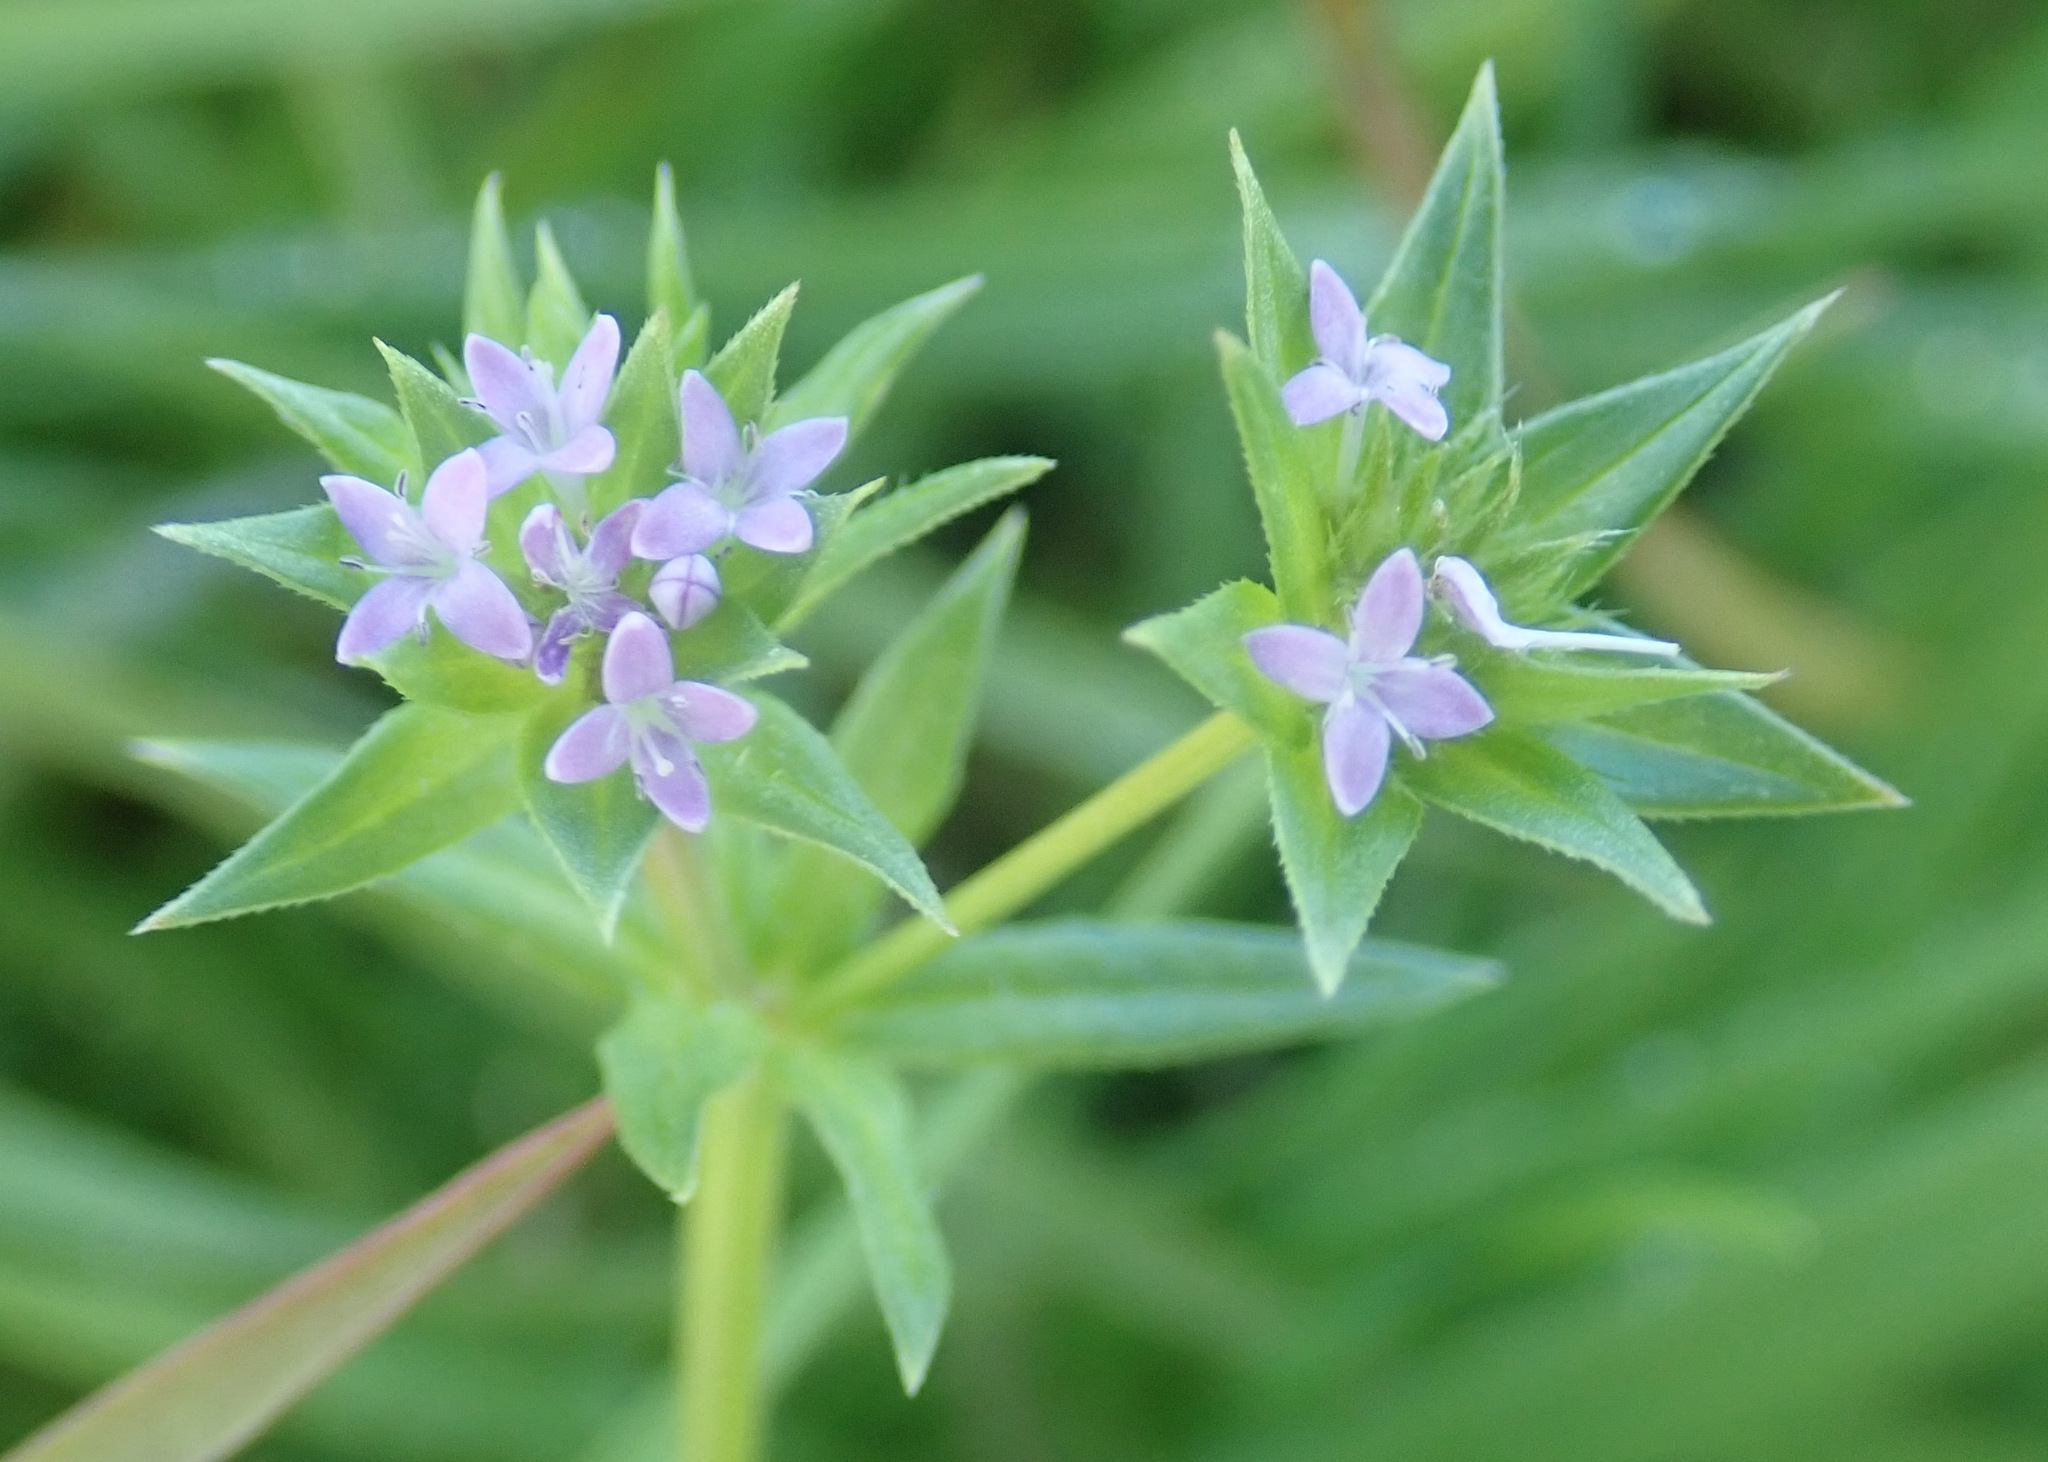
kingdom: Plantae
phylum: Tracheophyta
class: Magnoliopsida
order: Gentianales
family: Rubiaceae
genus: Sherardia
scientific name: Sherardia arvensis
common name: Field madder
